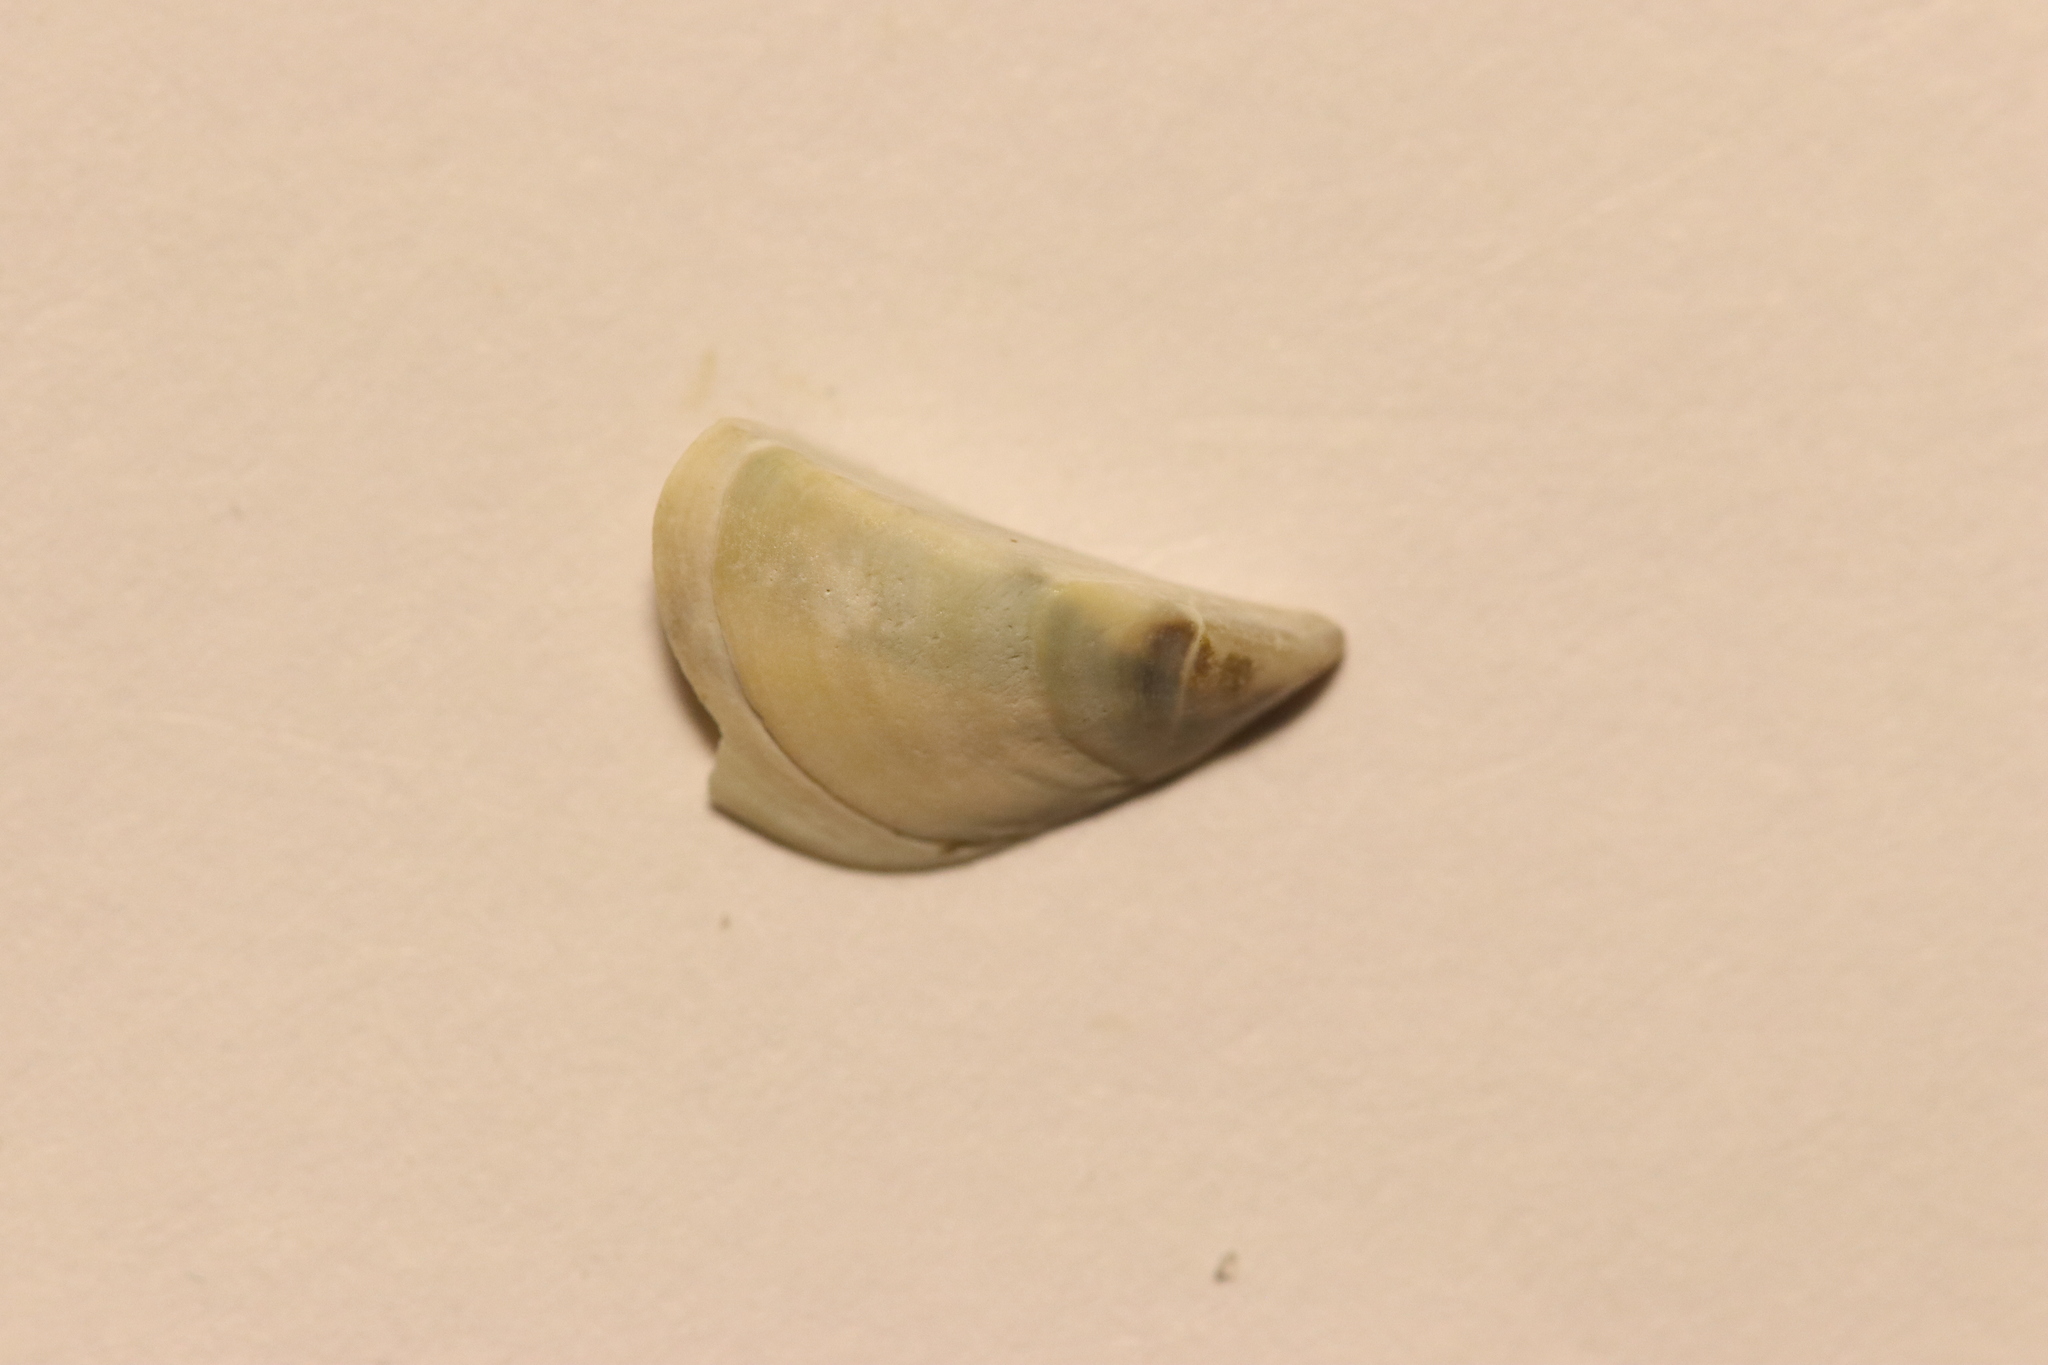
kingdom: Animalia
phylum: Mollusca
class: Bivalvia
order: Myida
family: Dreissenidae
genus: Dreissena
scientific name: Dreissena polymorpha
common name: Zebra mussel
